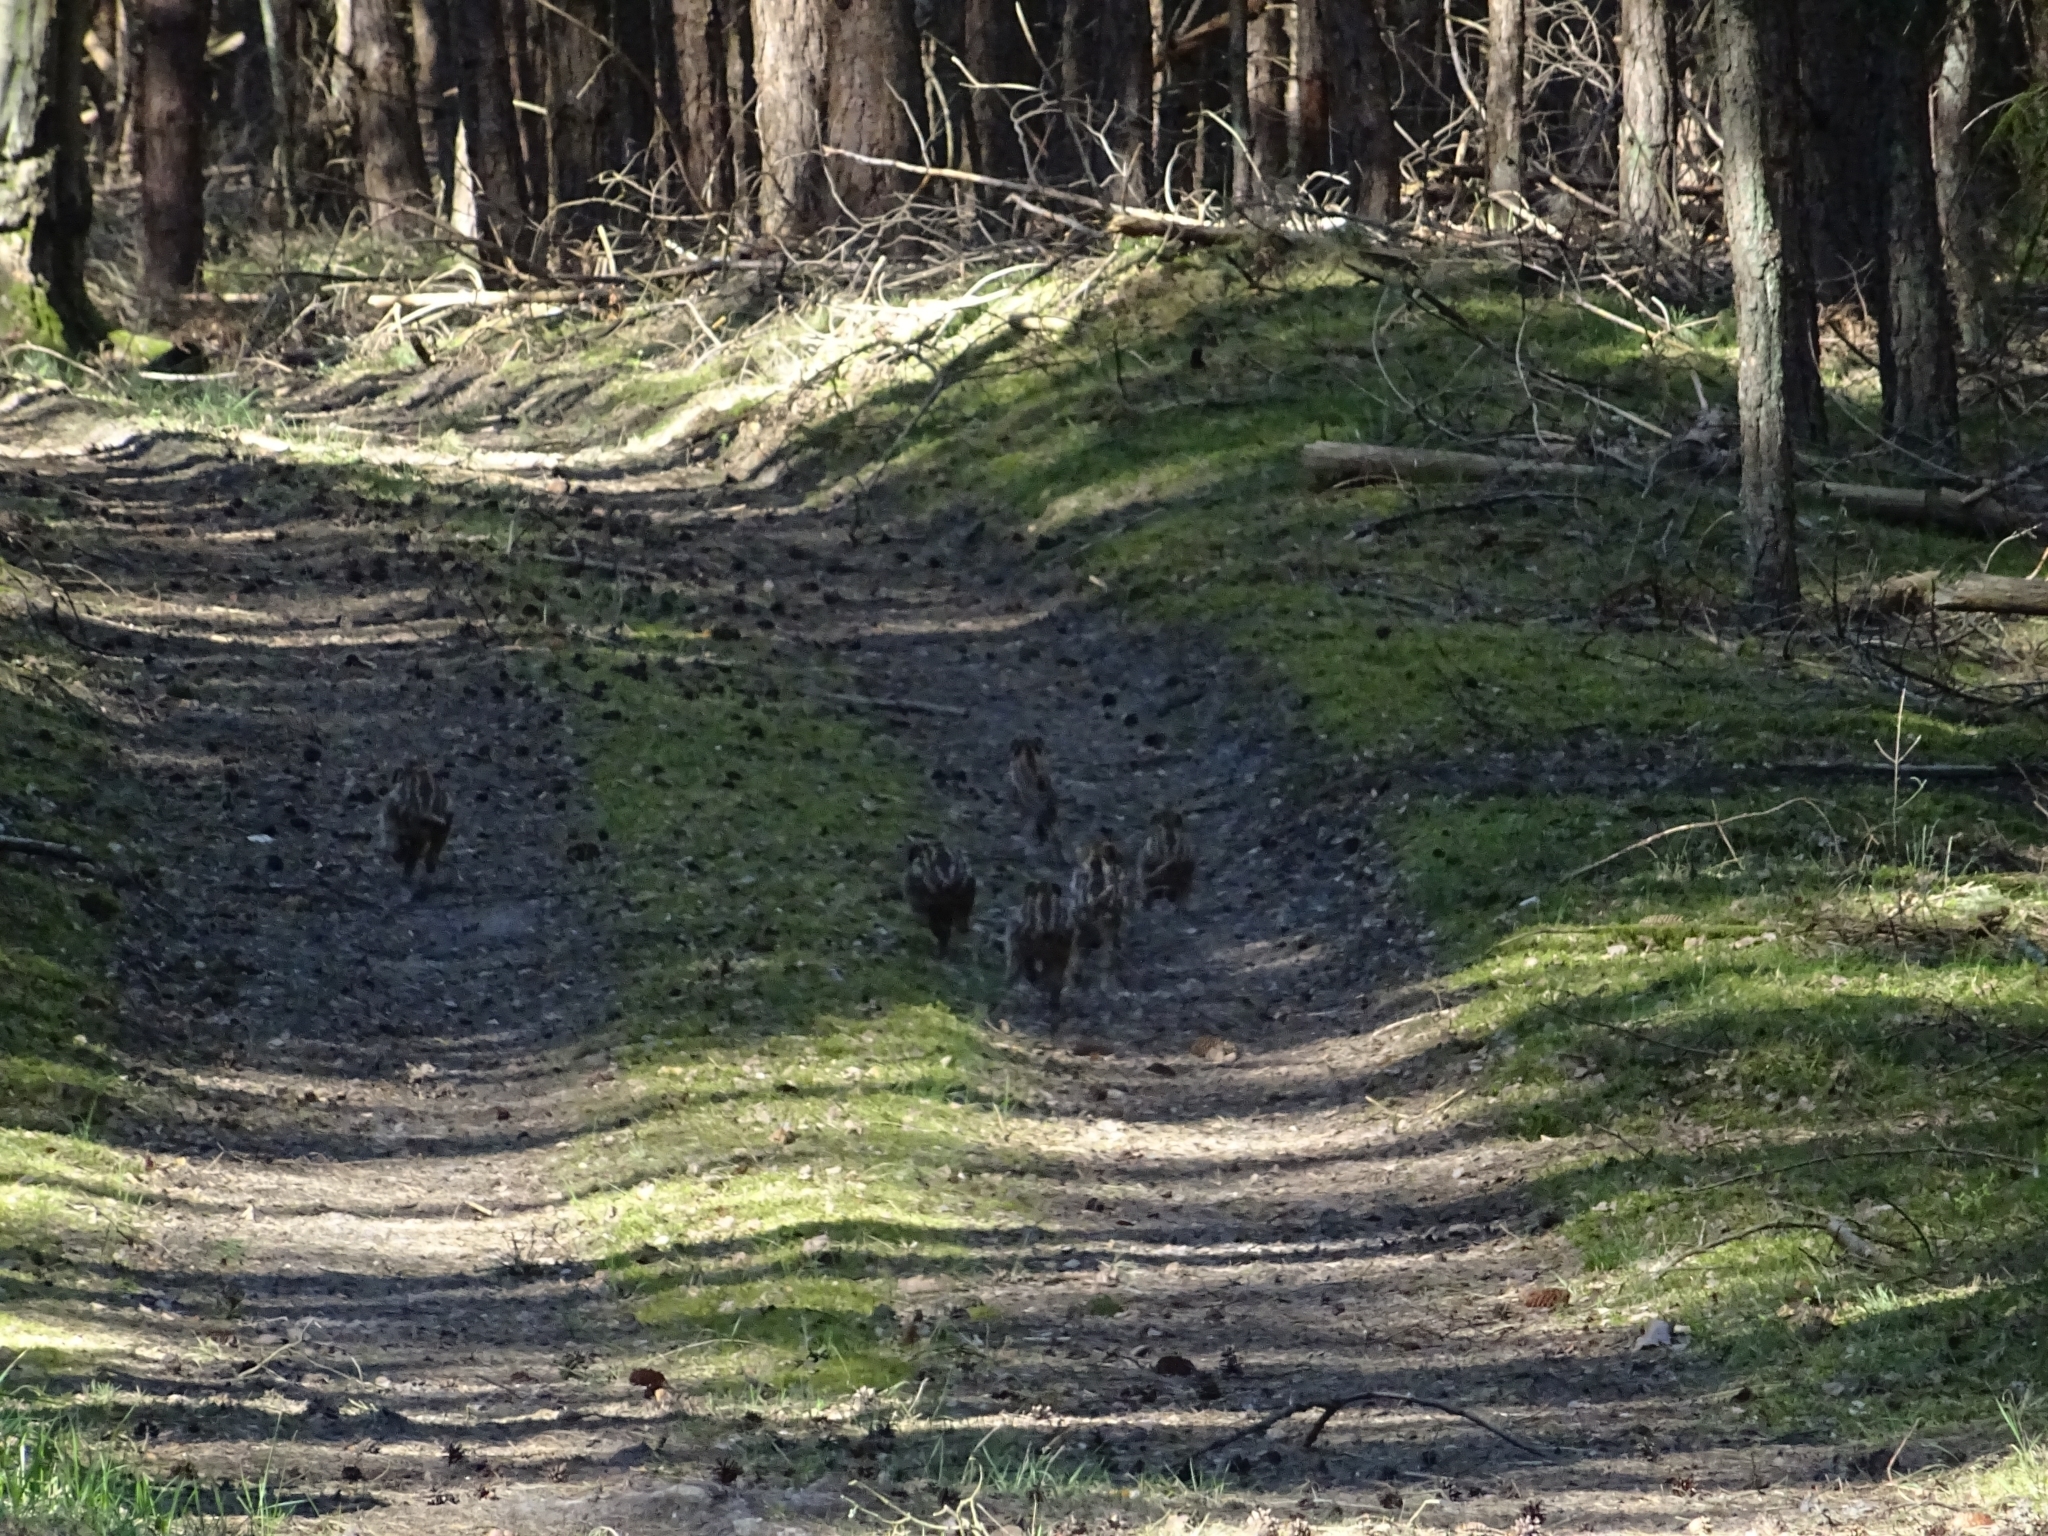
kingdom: Animalia
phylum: Chordata
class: Mammalia
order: Artiodactyla
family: Suidae
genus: Sus
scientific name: Sus scrofa
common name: Wild boar
